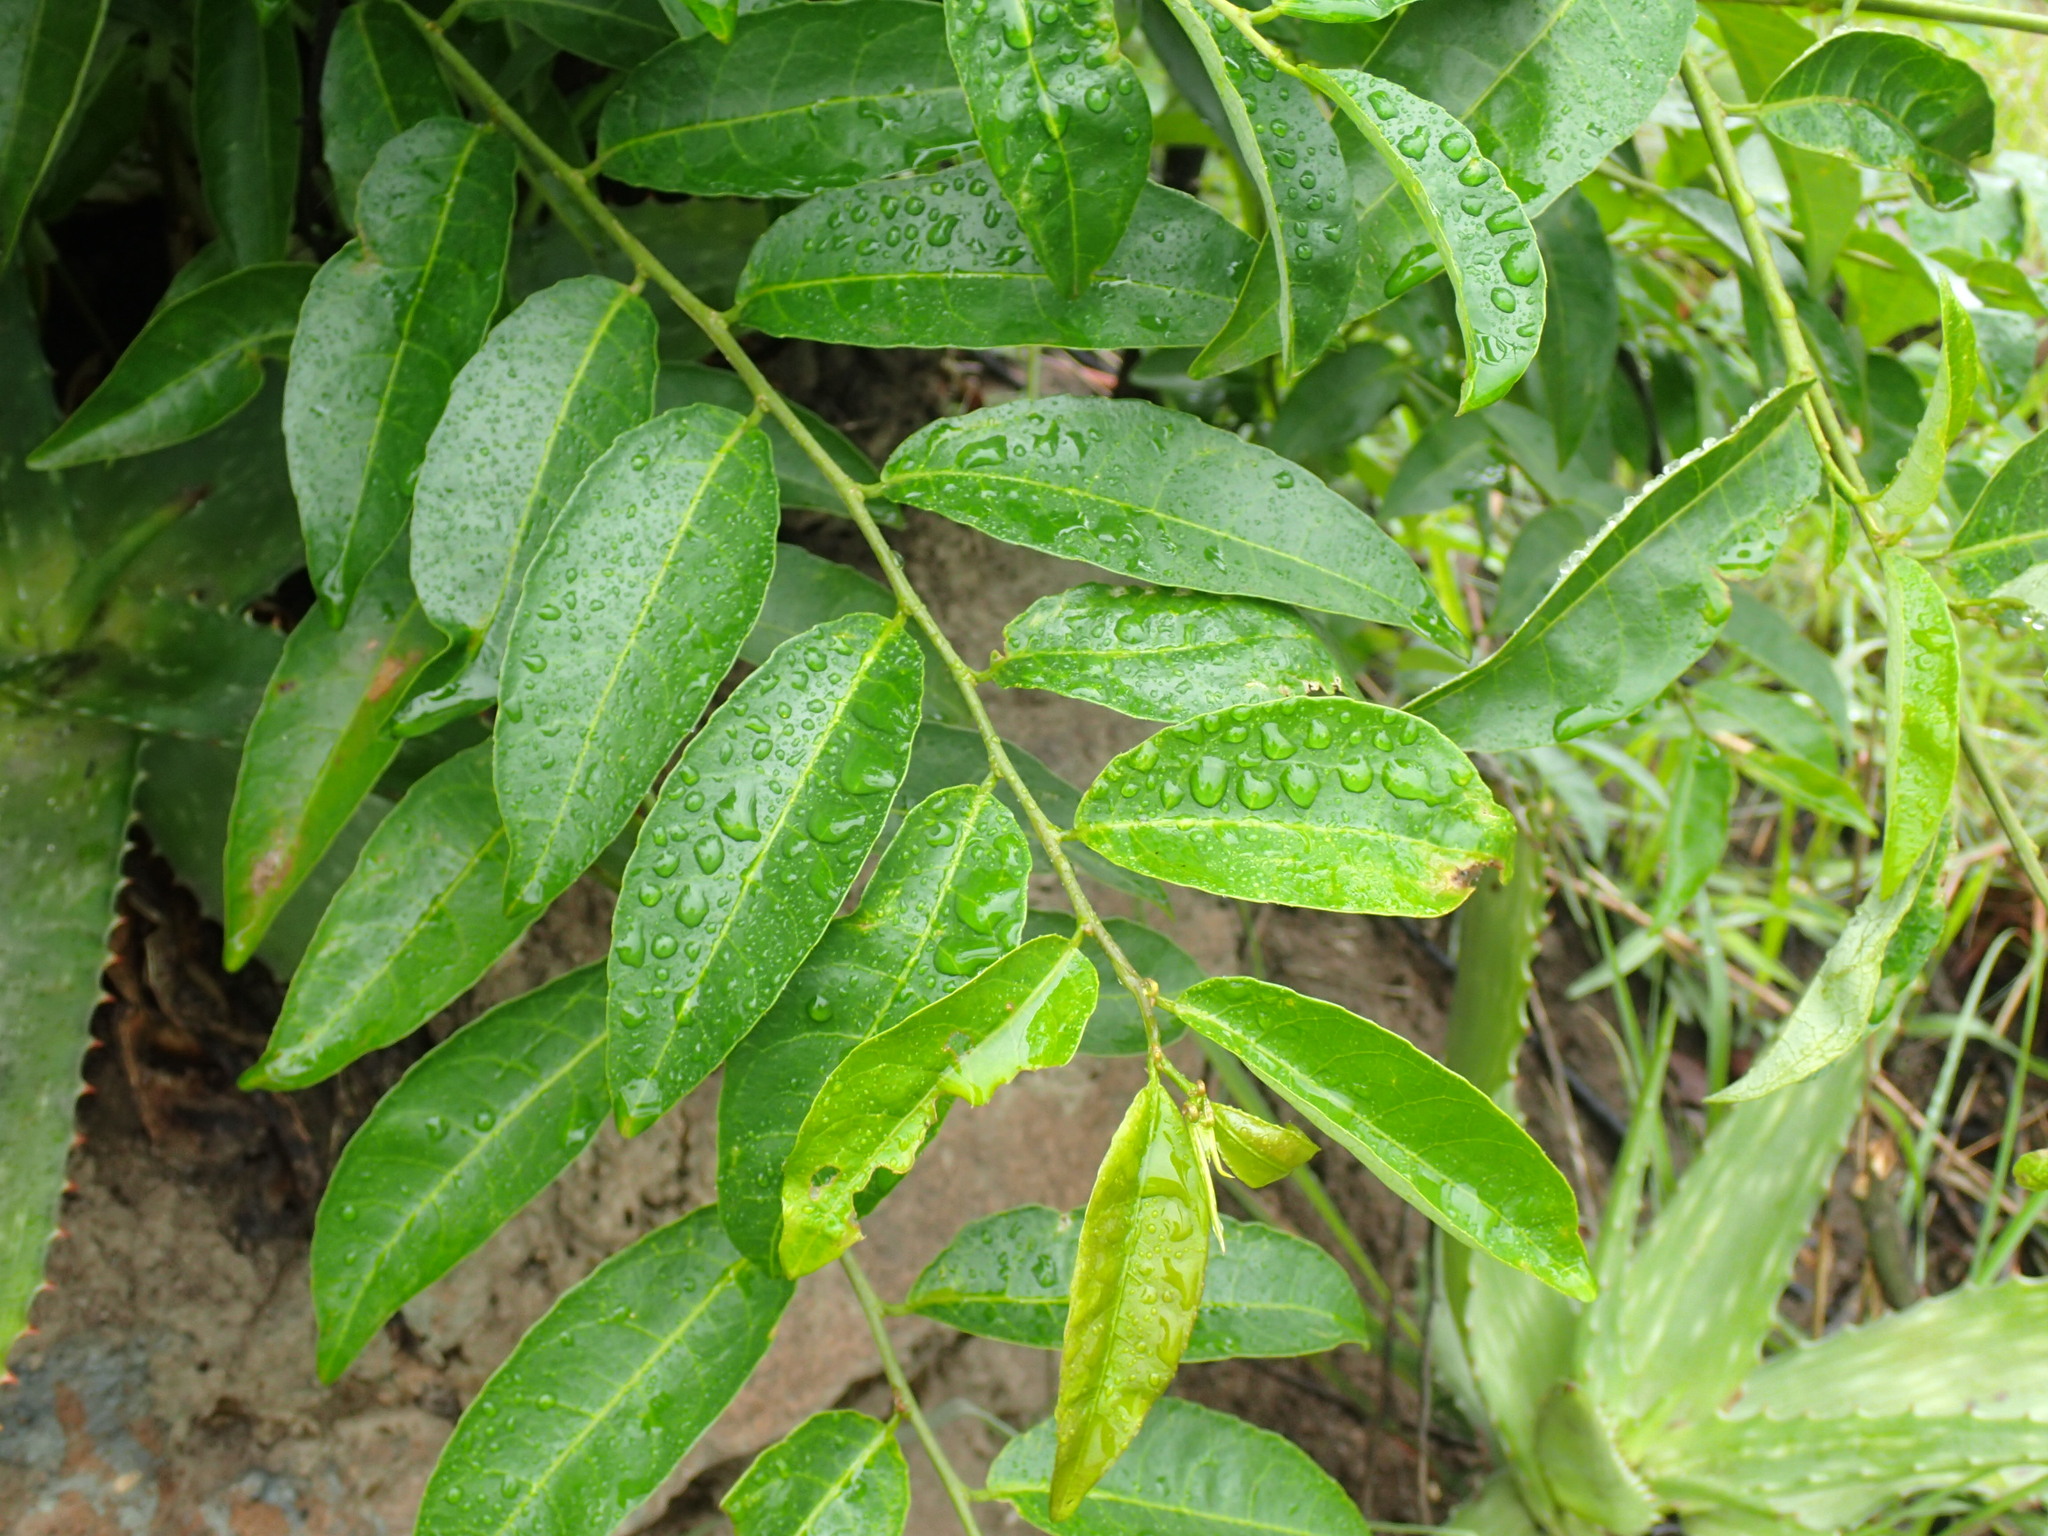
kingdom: Plantae
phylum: Tracheophyta
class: Magnoliopsida
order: Malpighiales
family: Euphorbiaceae
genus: Sclerocroton
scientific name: Sclerocroton integerrimus
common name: Duiker berry
